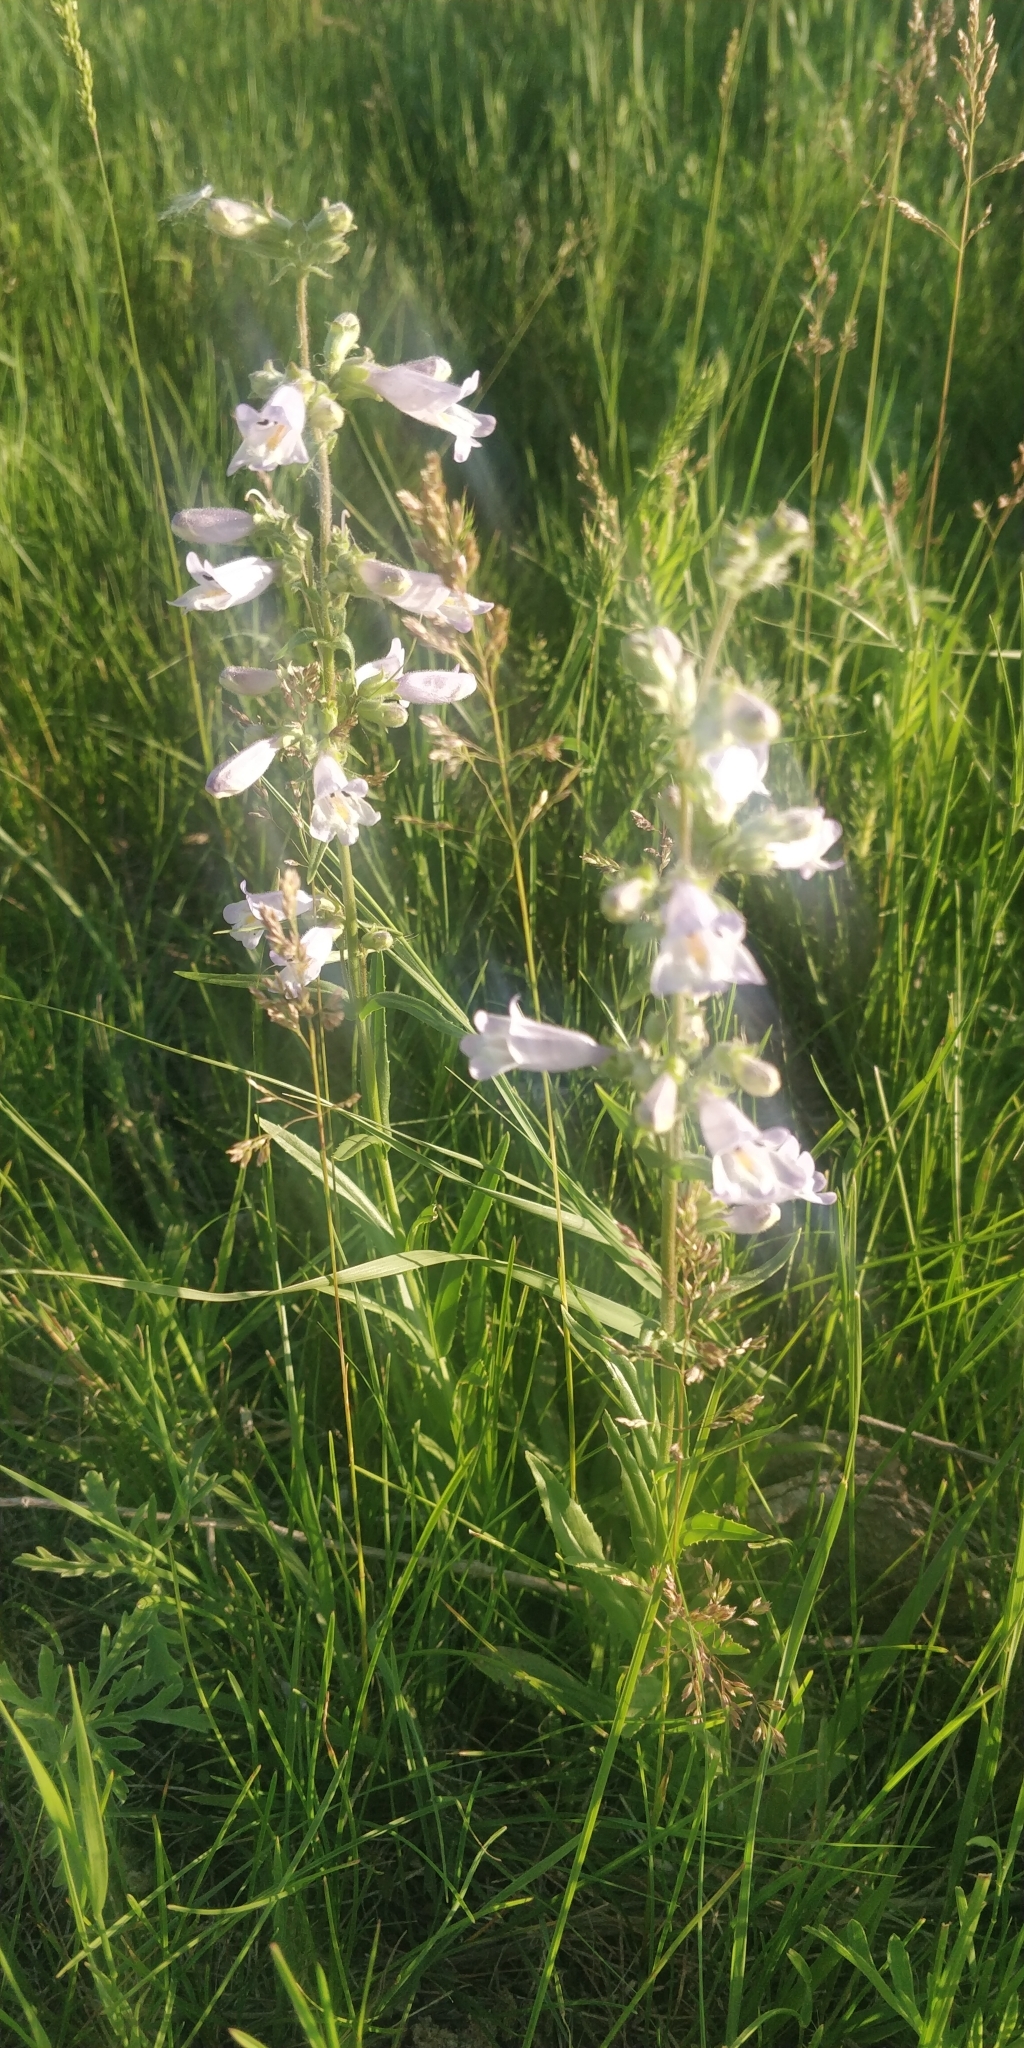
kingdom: Plantae
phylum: Tracheophyta
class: Magnoliopsida
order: Lamiales
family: Plantaginaceae
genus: Penstemon
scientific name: Penstemon gracilis
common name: Slender beardtongue
